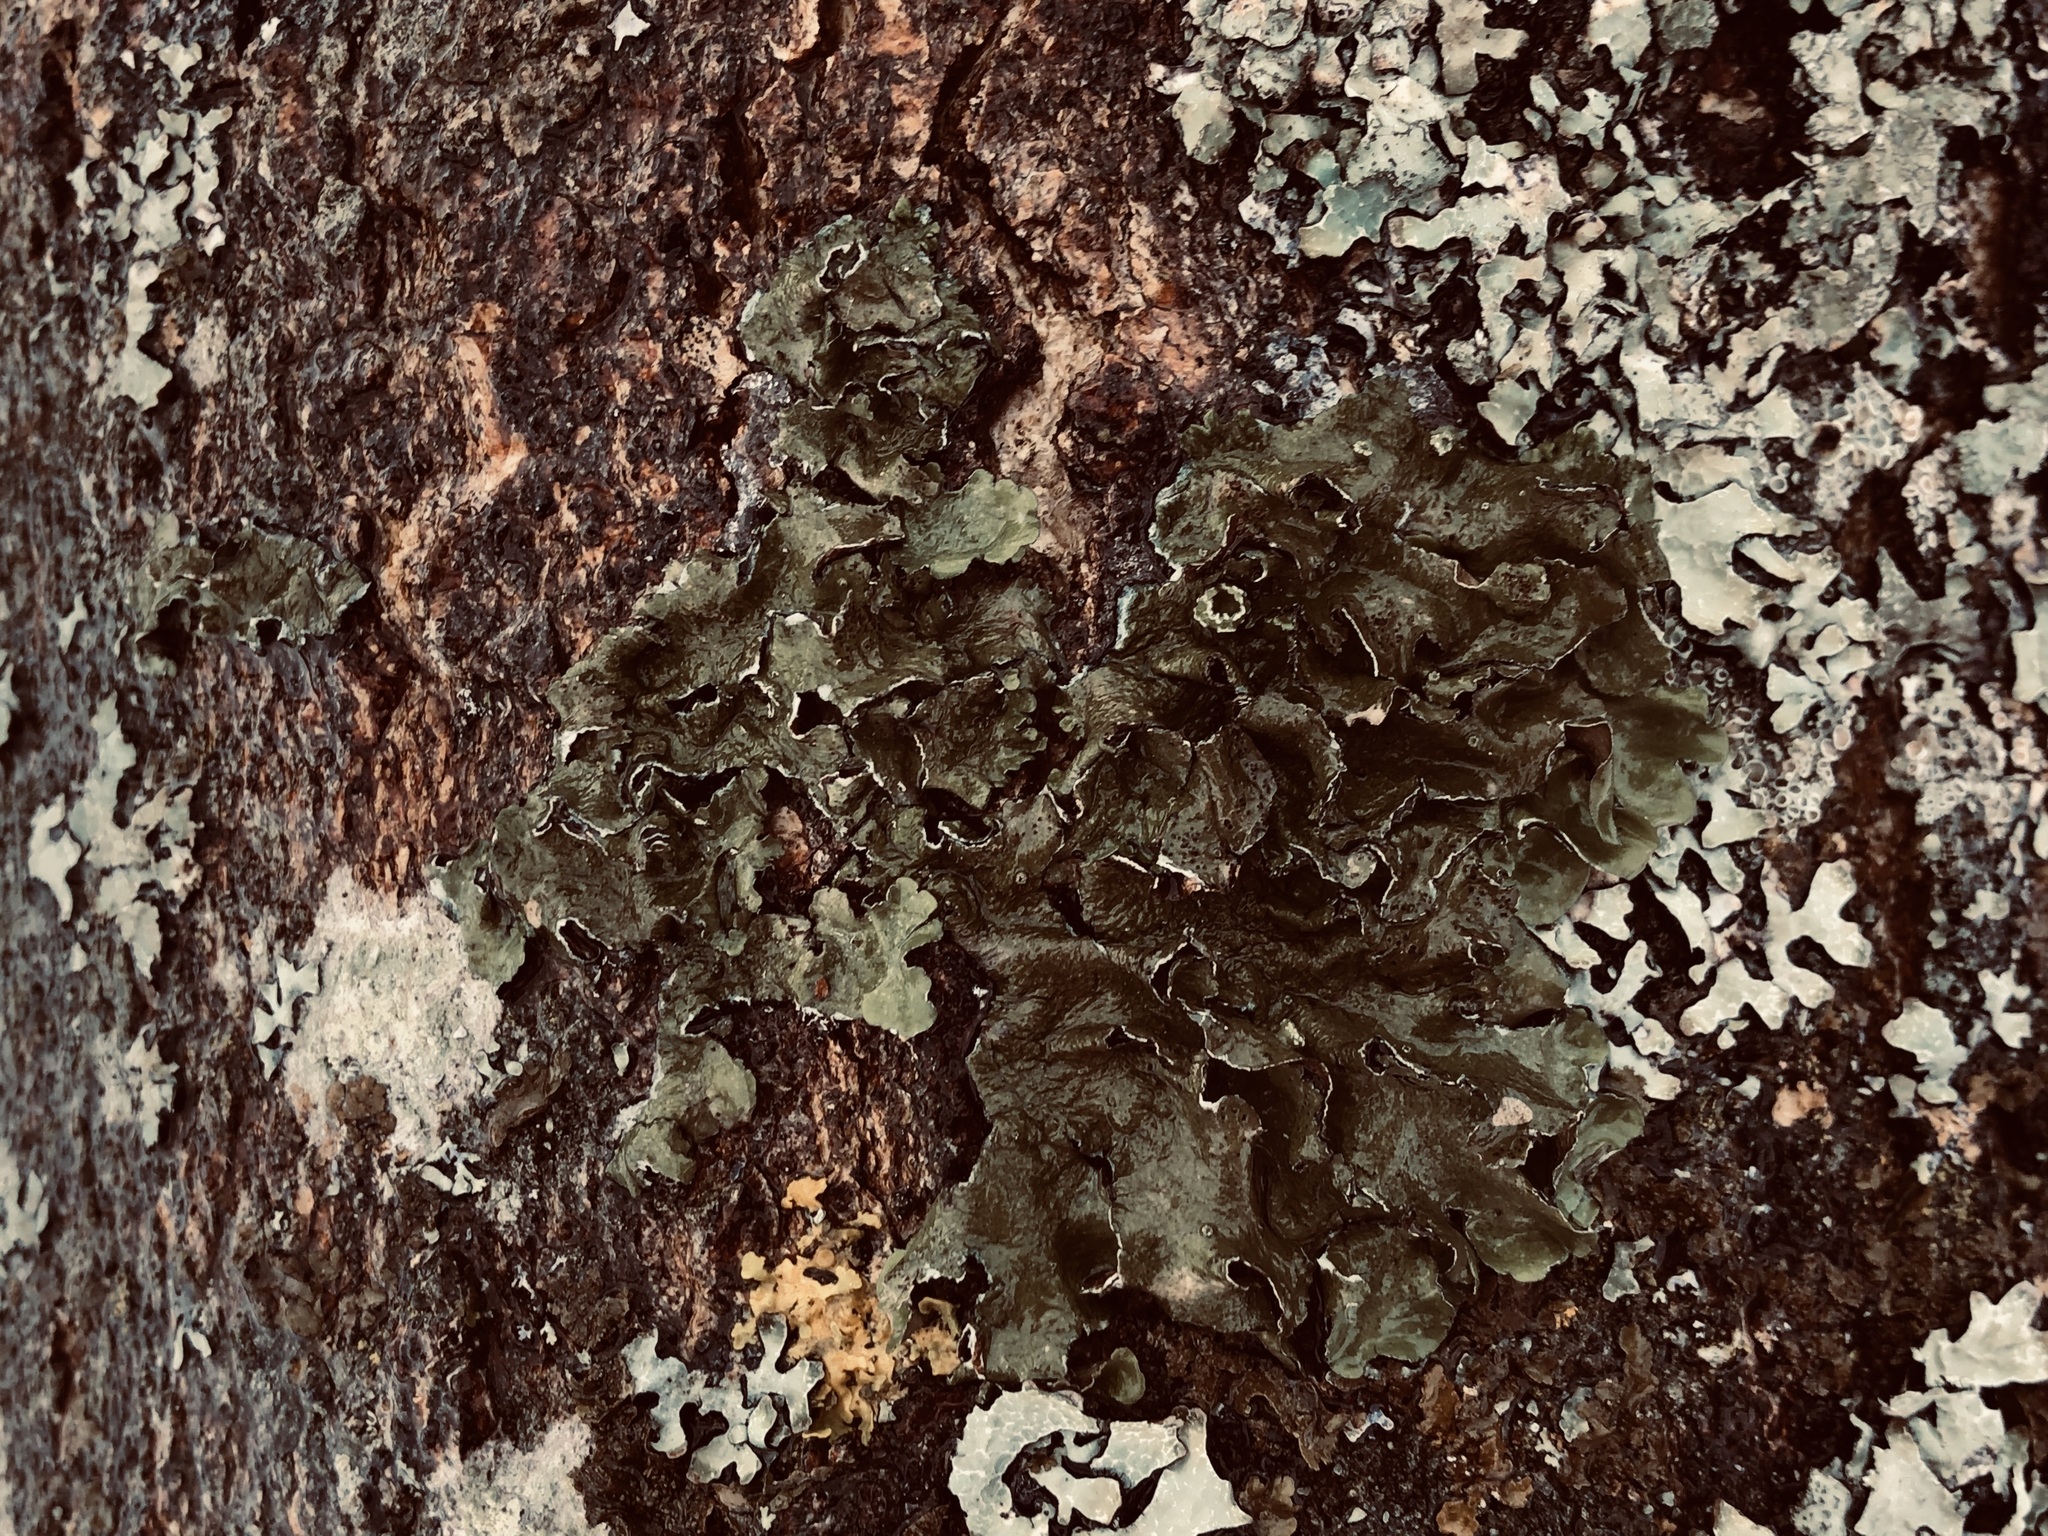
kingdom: Fungi
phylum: Ascomycota
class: Lecanoromycetes
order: Lecanorales
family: Parmeliaceae
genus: Pleurosticta
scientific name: Pleurosticta acetabulum
